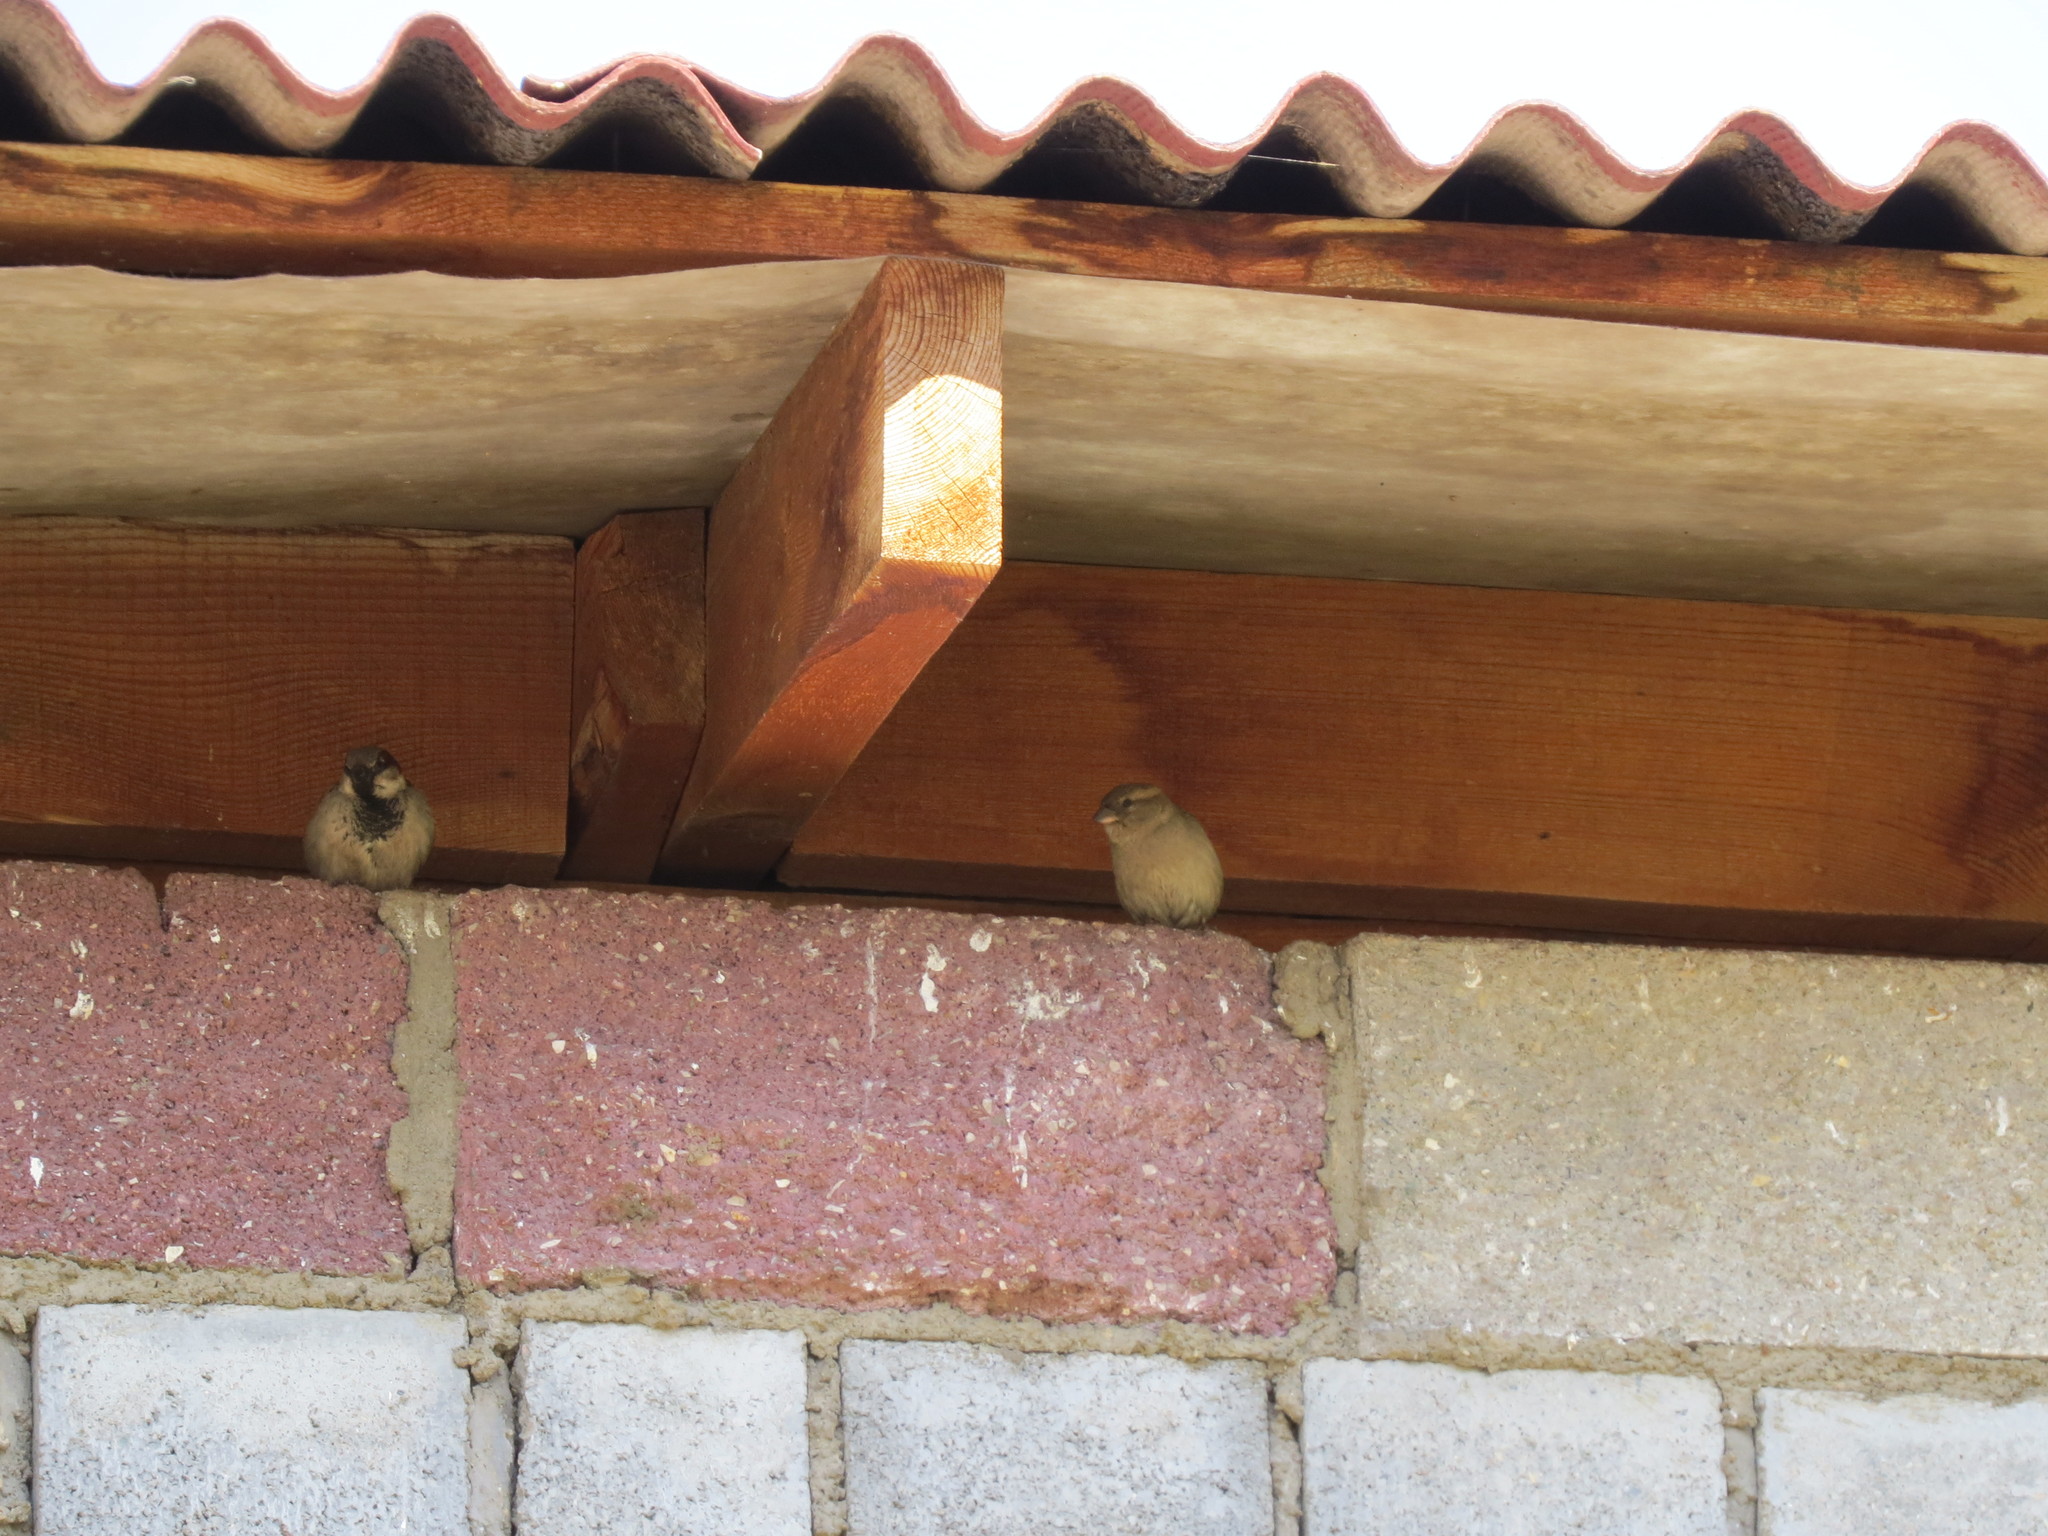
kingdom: Animalia
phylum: Chordata
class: Aves
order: Passeriformes
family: Passeridae
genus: Passer
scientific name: Passer domesticus
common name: House sparrow
